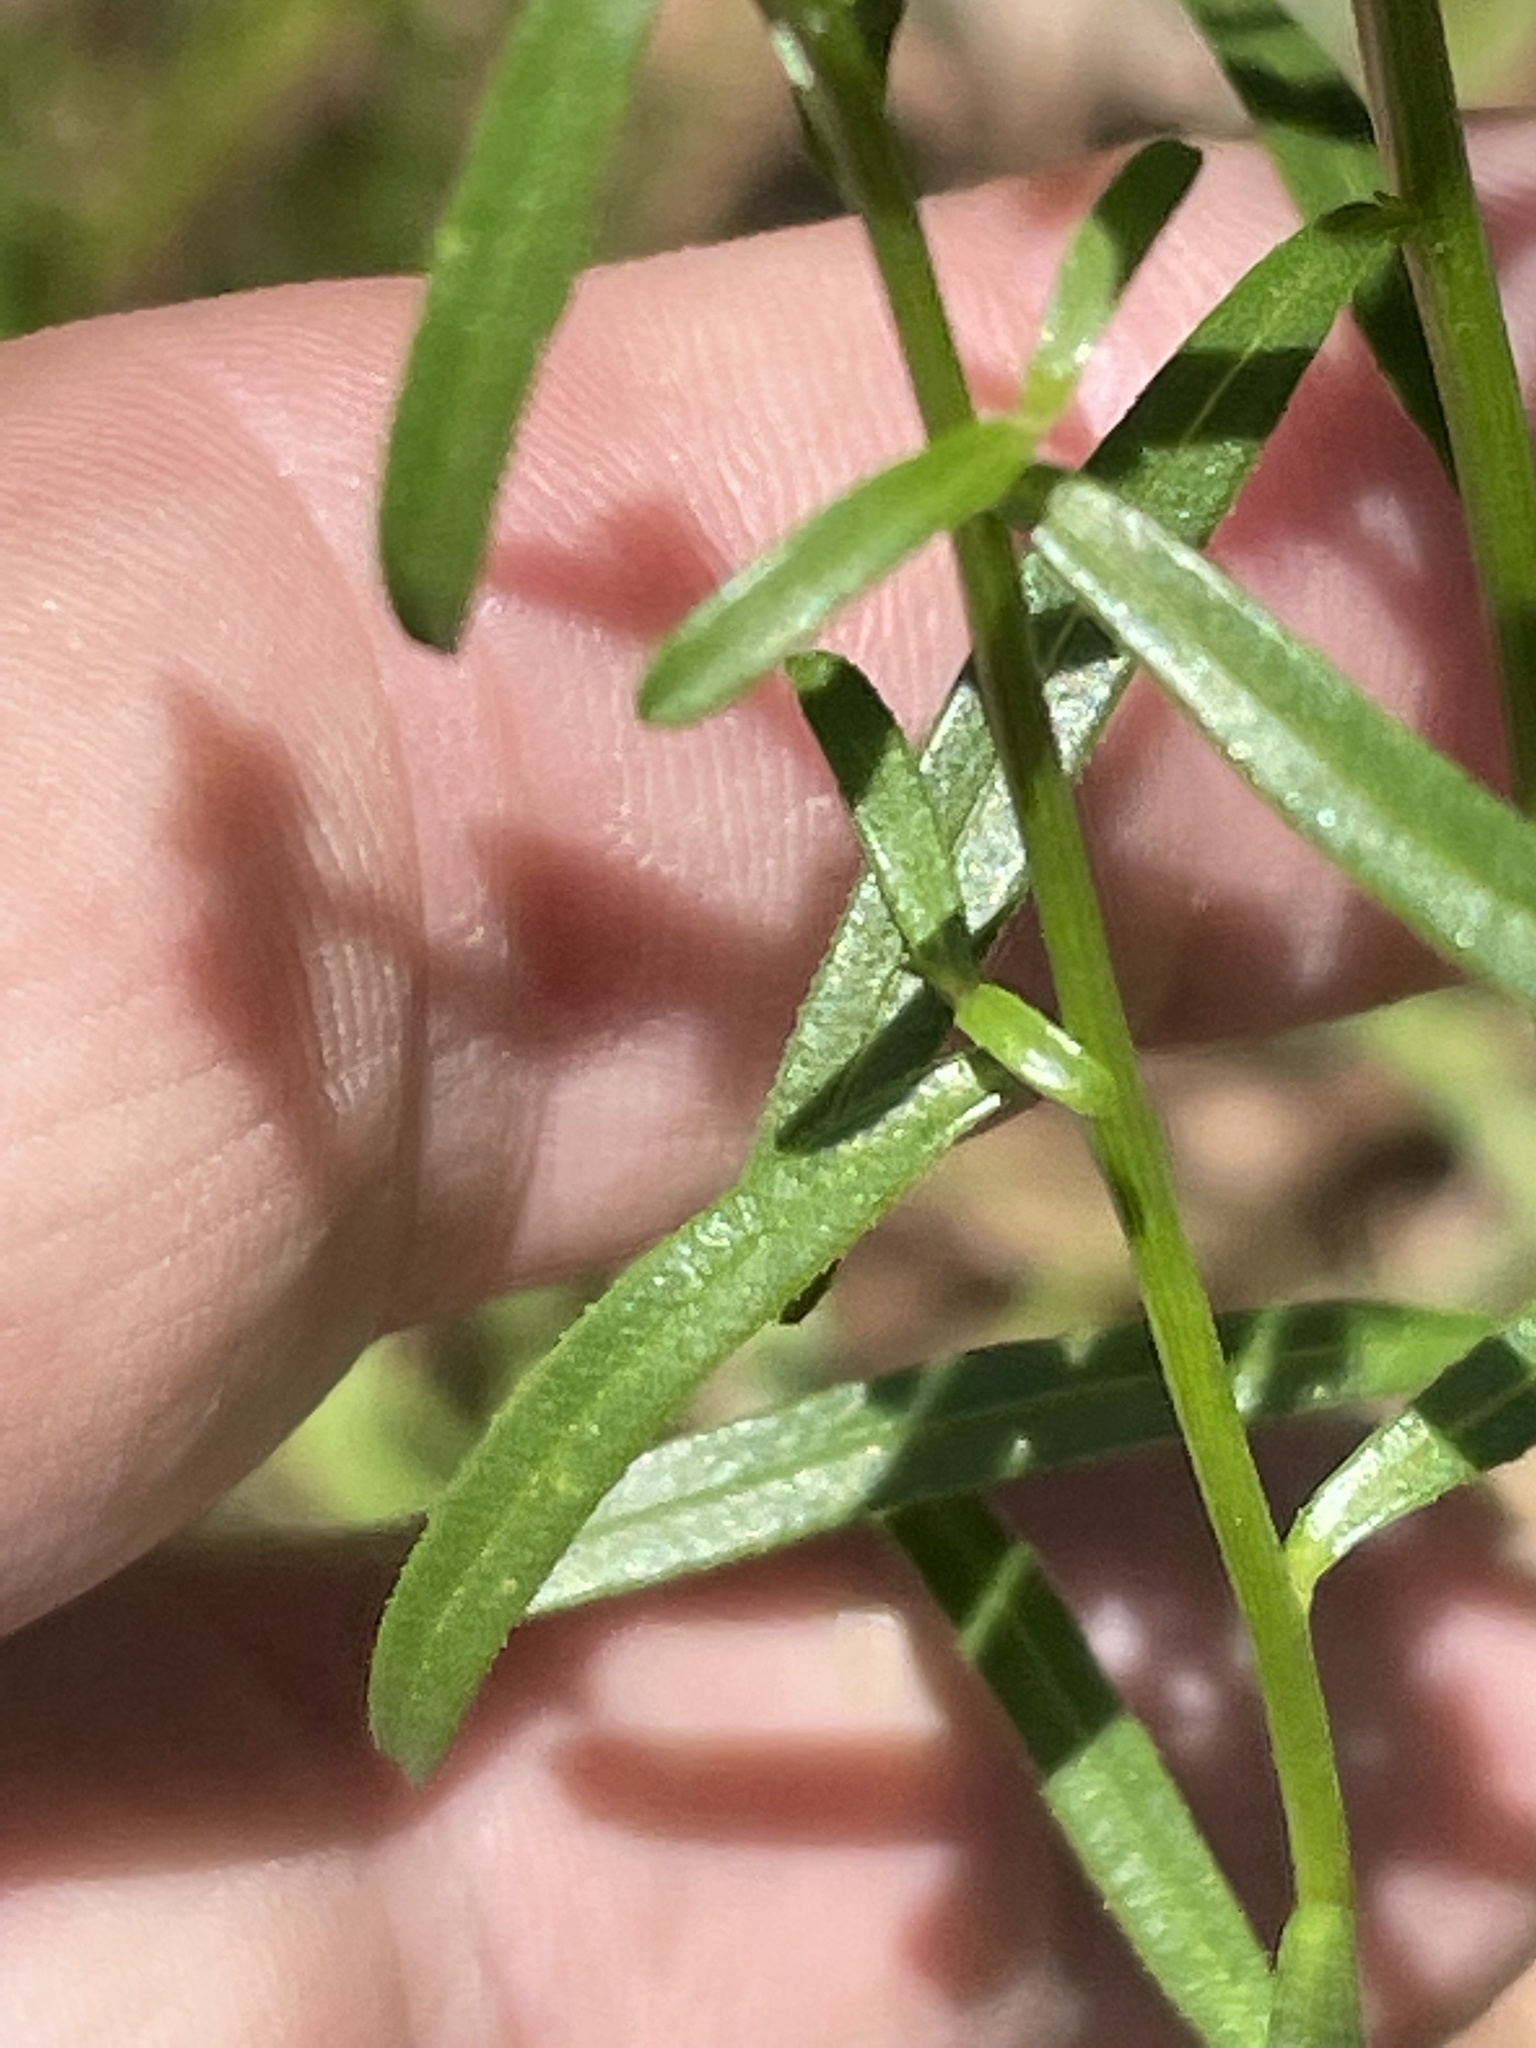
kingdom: Plantae
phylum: Tracheophyta
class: Magnoliopsida
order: Asterales
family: Asteraceae
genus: Sericocarpus
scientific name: Sericocarpus linifolius
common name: Narrow-leaf aster
